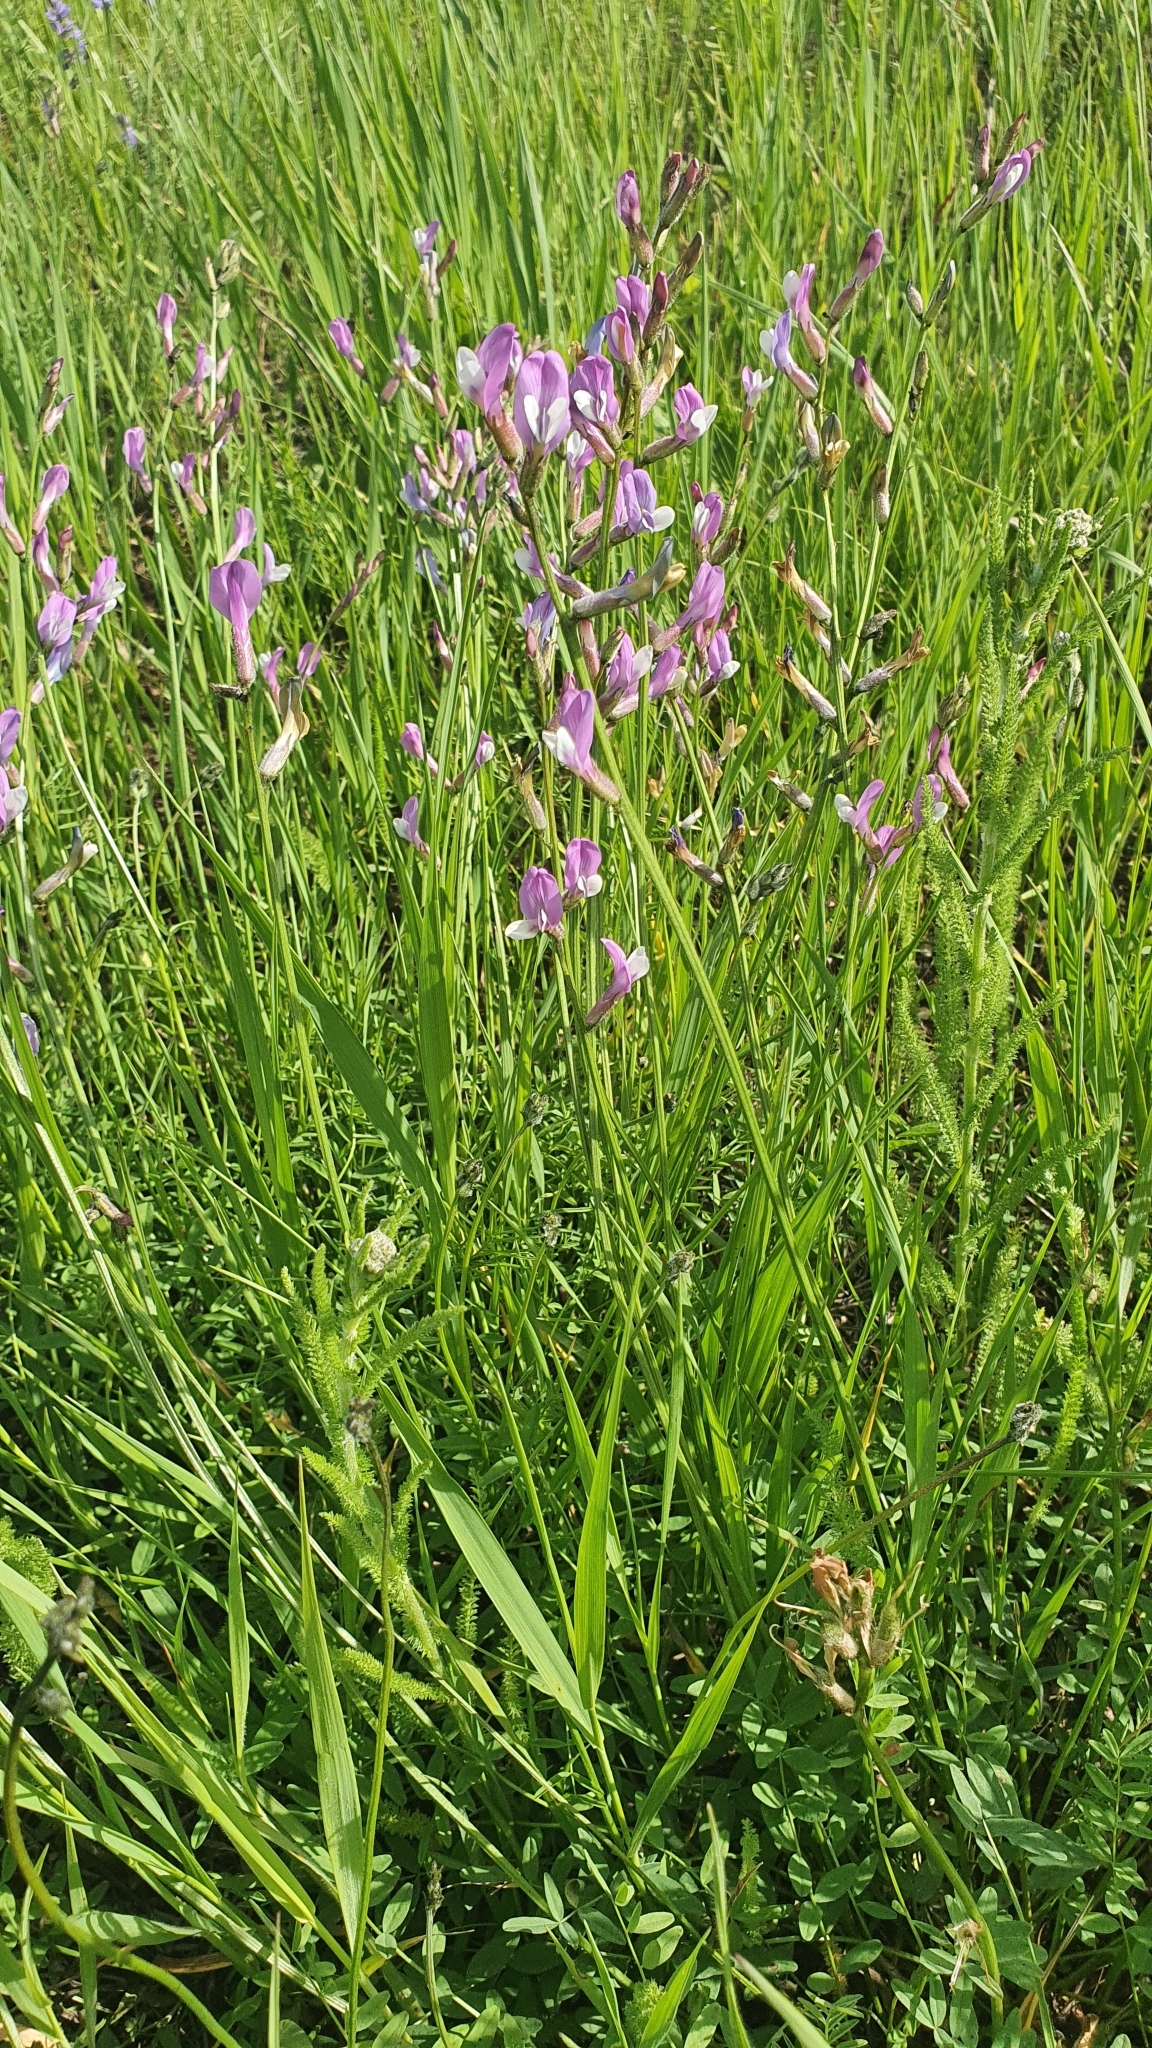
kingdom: Plantae
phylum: Tracheophyta
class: Magnoliopsida
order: Fabales
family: Fabaceae
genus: Astragalus
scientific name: Astragalus macropus
